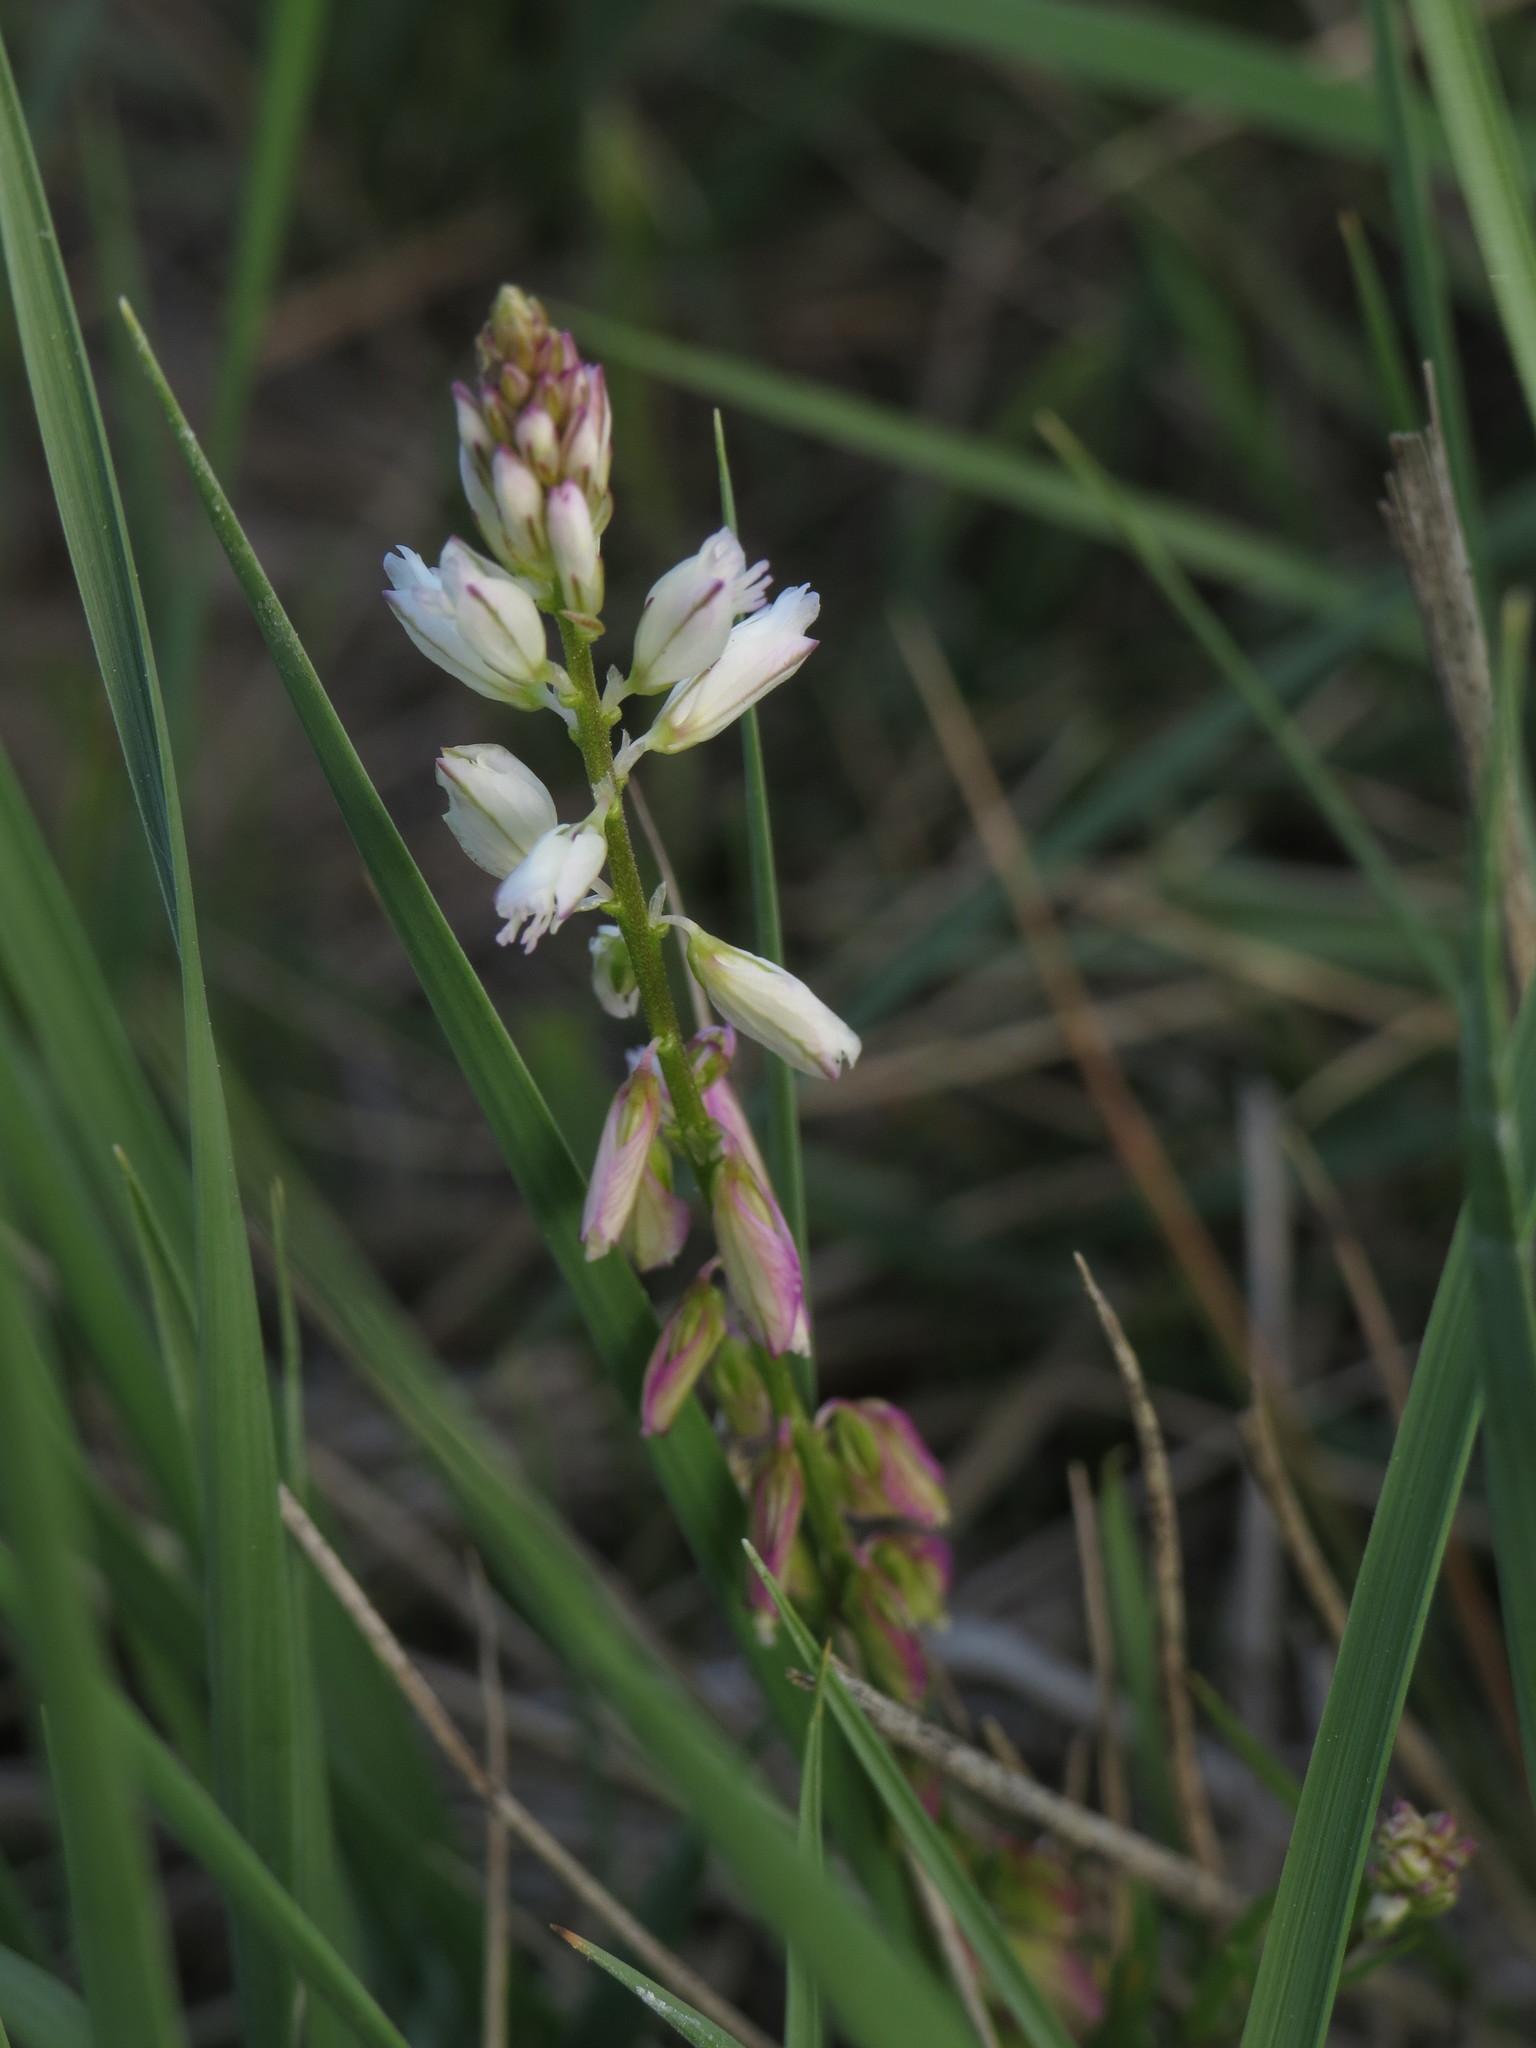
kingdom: Plantae
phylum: Tracheophyta
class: Magnoliopsida
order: Fabales
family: Polygalaceae
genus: Polygala
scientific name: Polygala vulgaris
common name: Common milkwort
